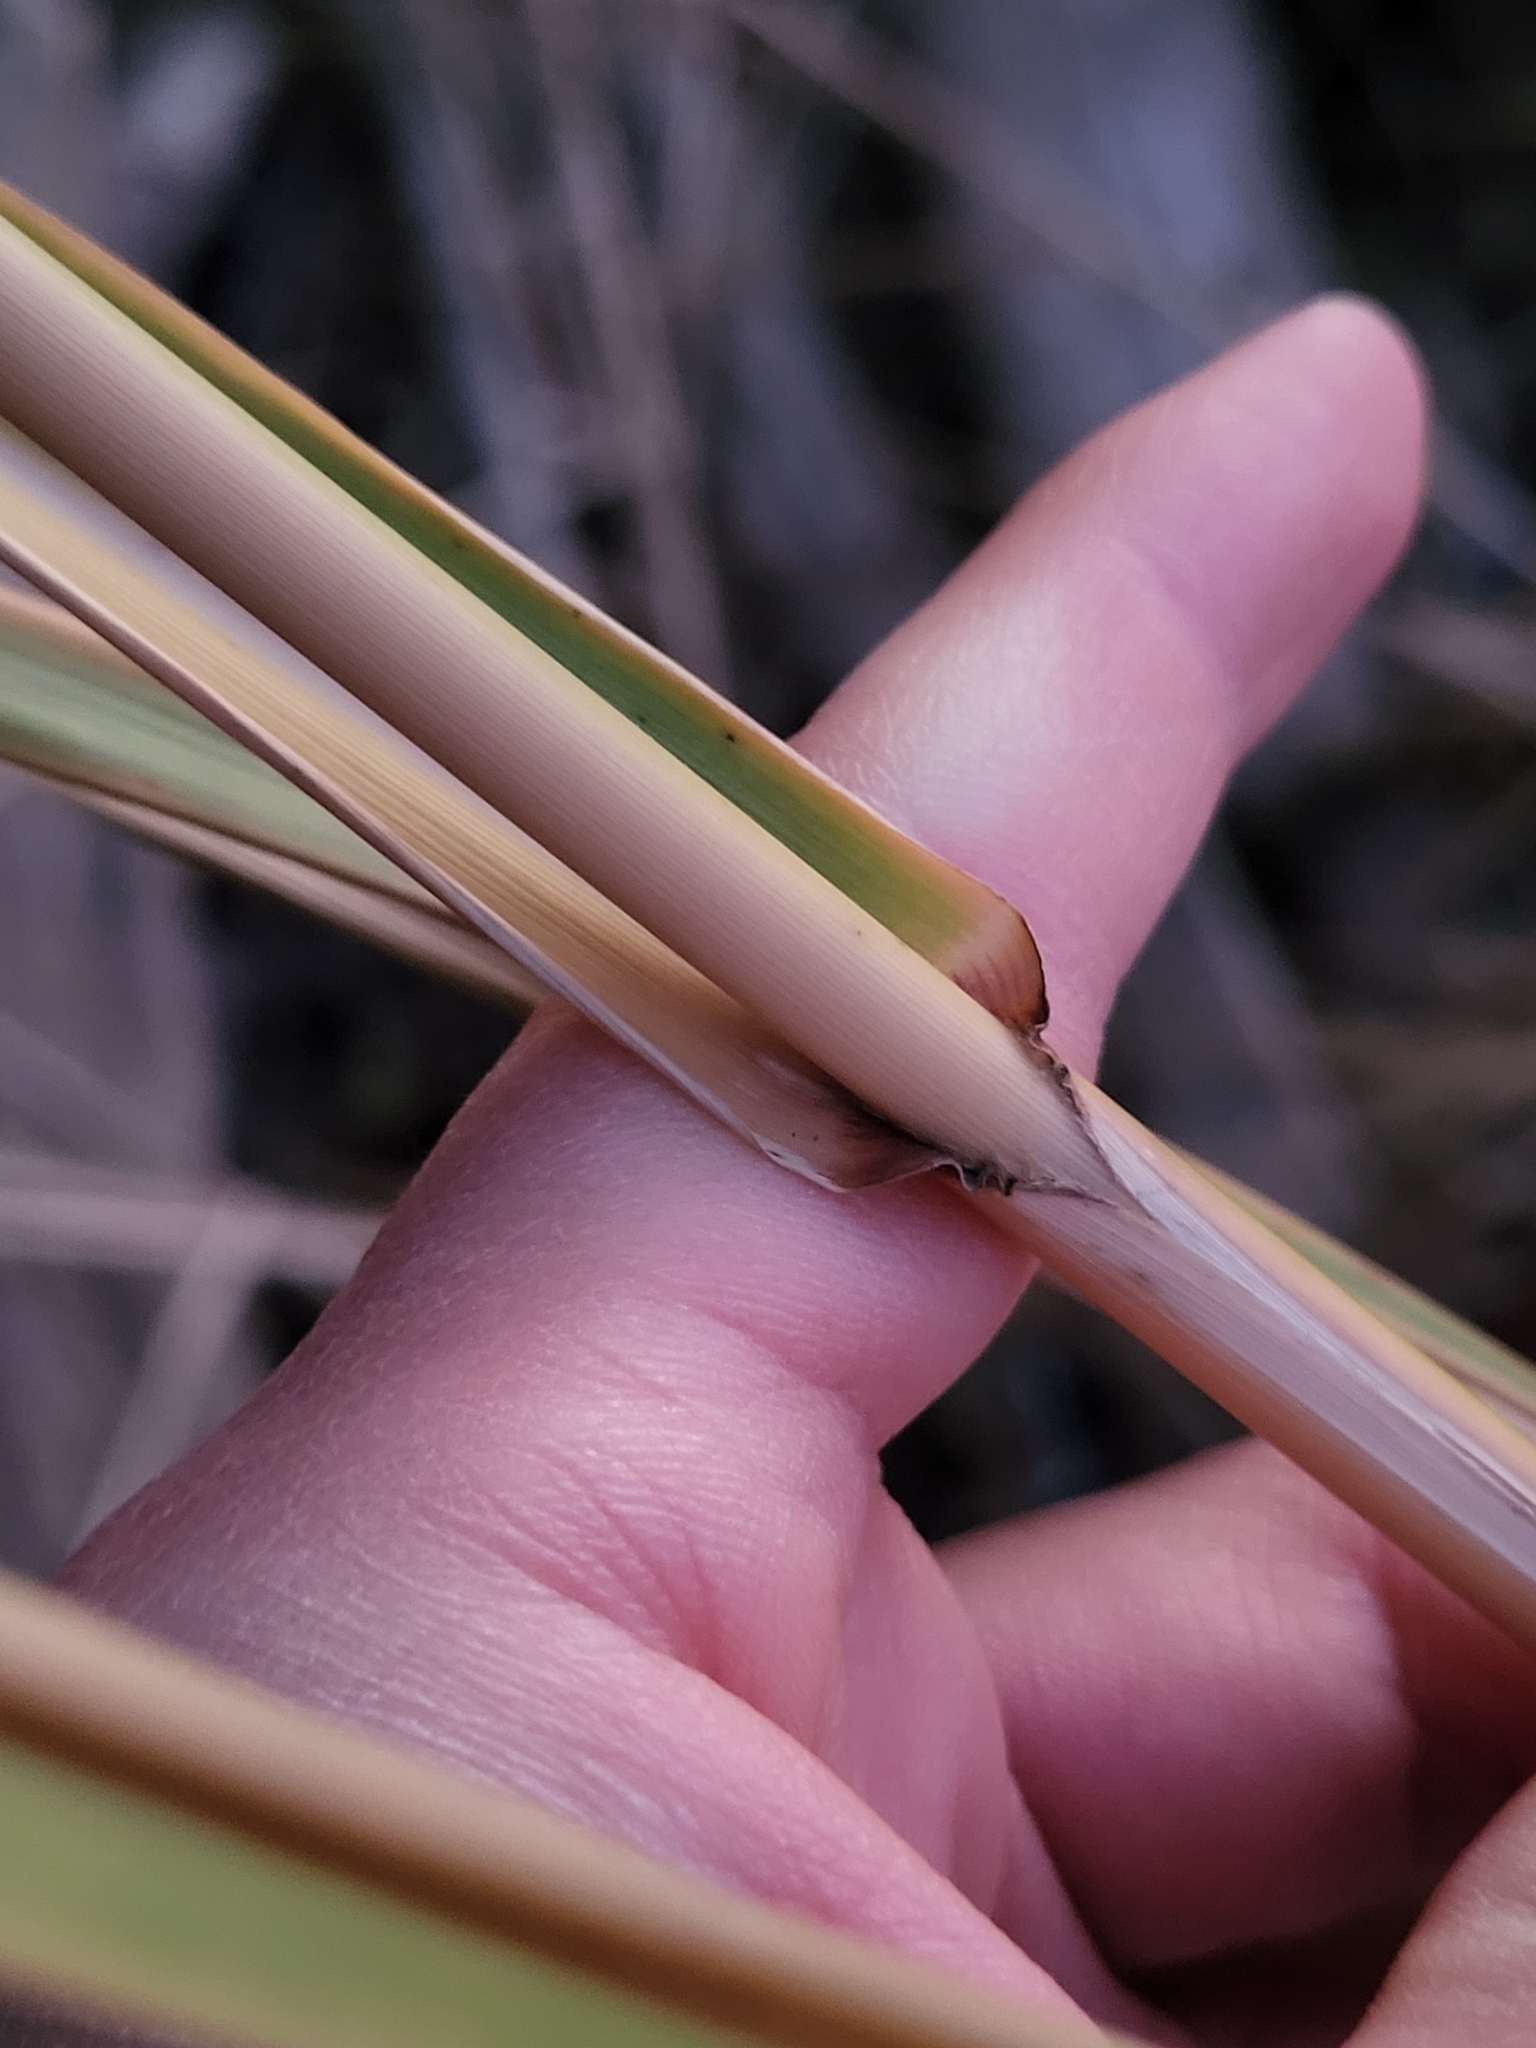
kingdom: Plantae
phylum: Tracheophyta
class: Liliopsida
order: Poales
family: Poaceae
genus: Sporobolus
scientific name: Sporobolus cynosuroides
